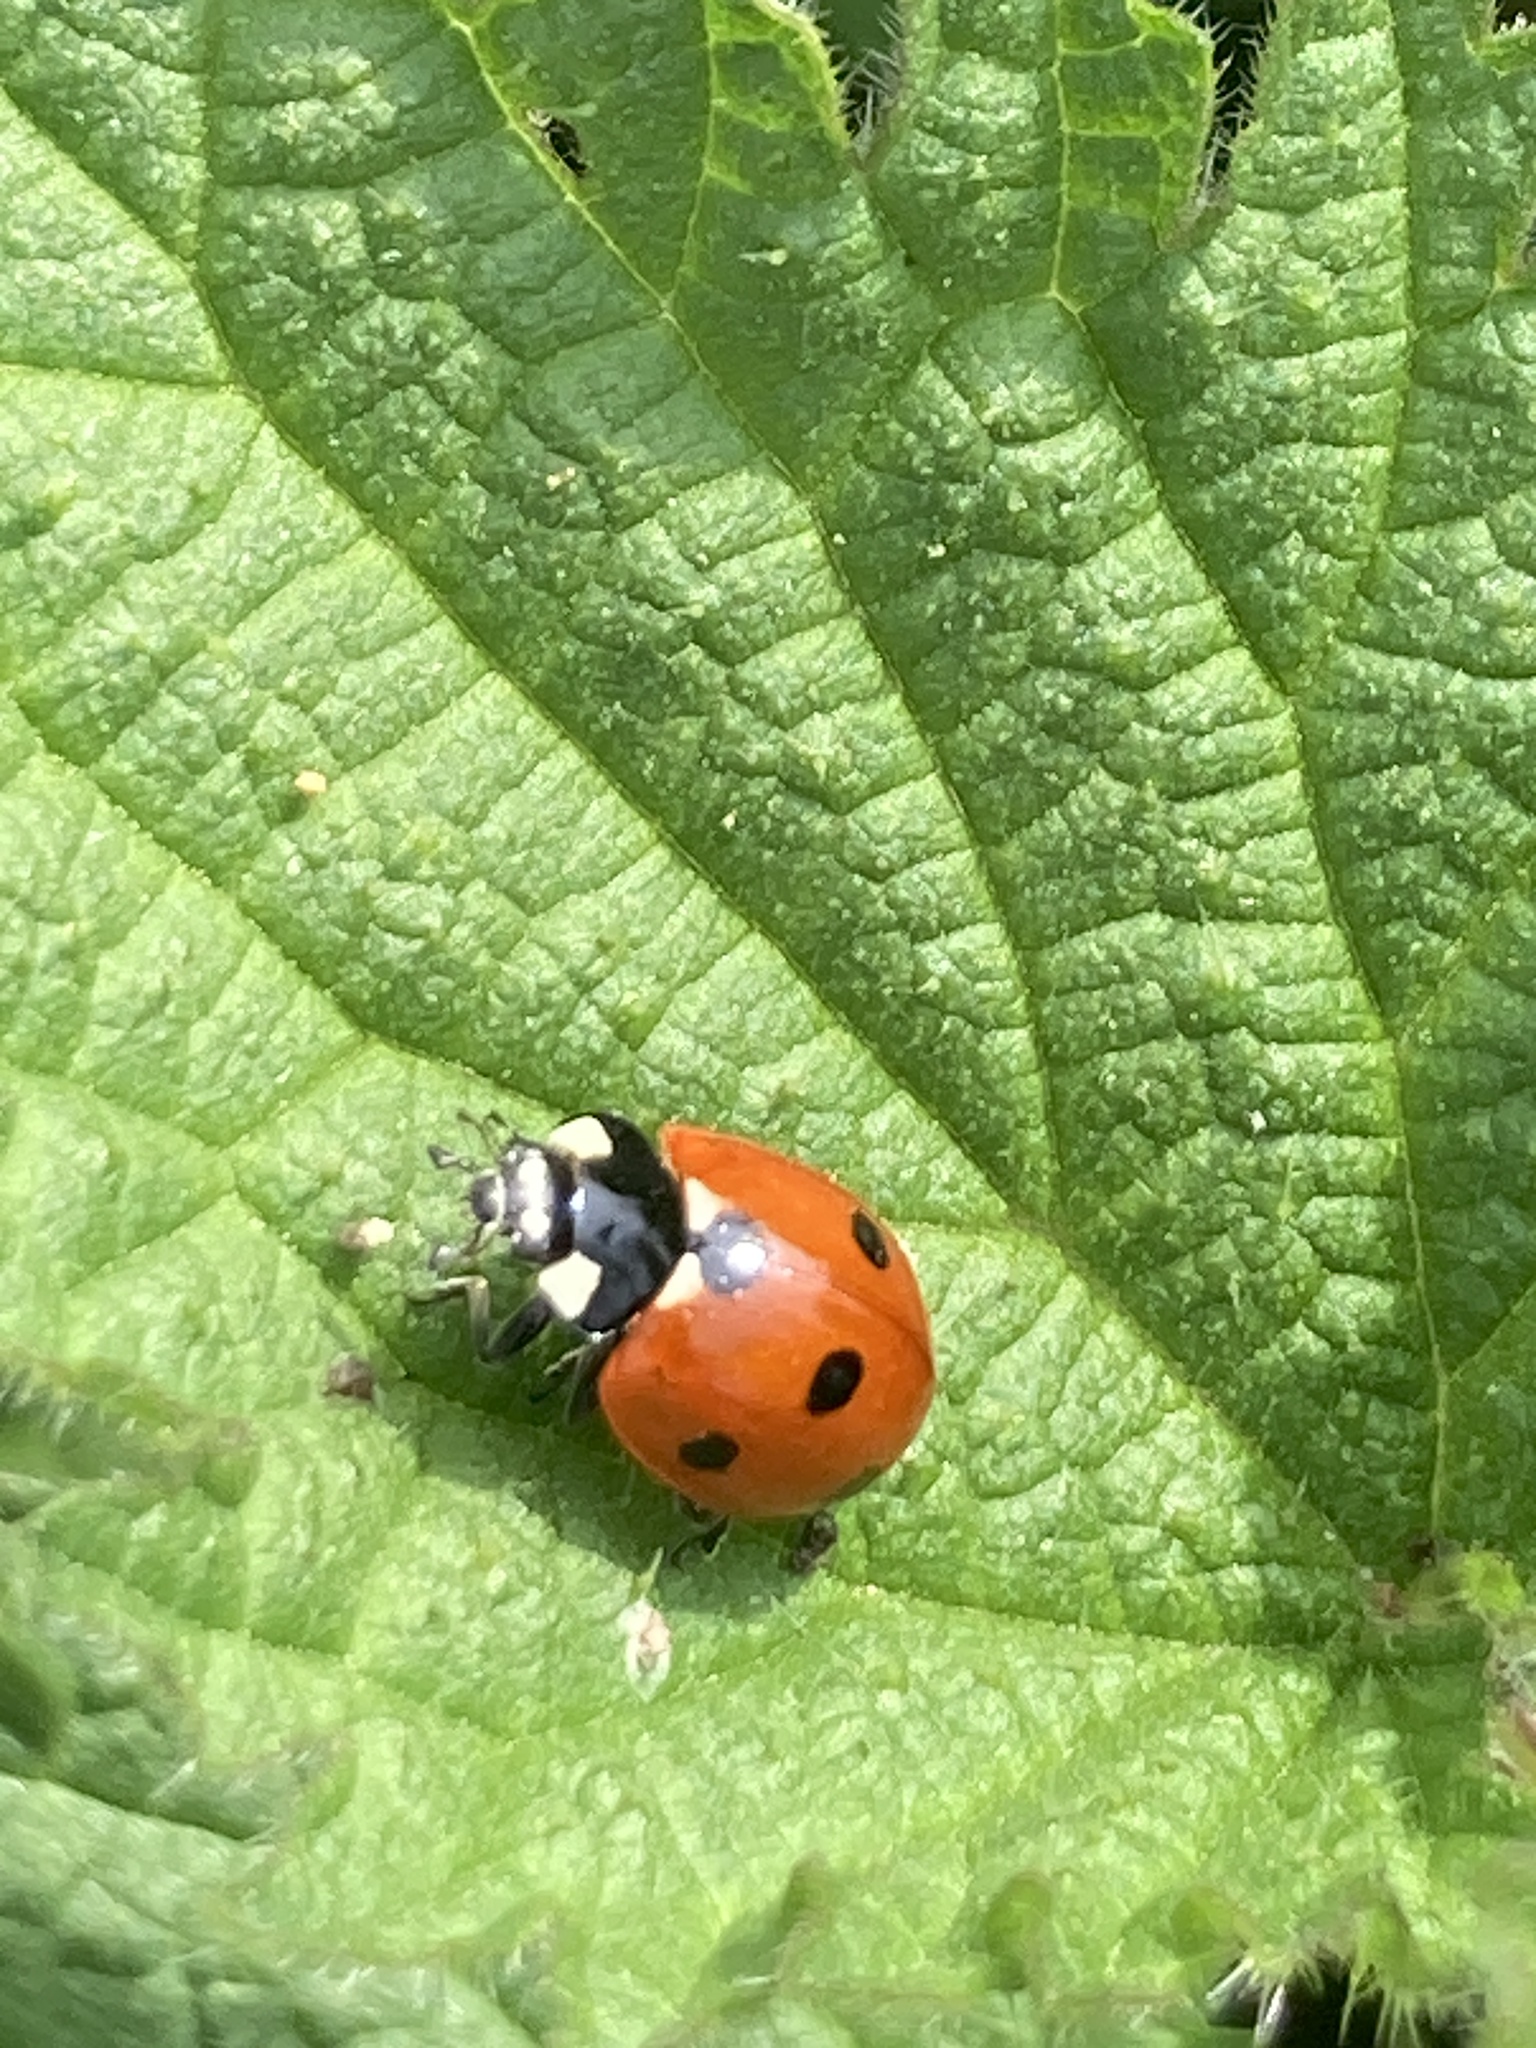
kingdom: Animalia
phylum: Arthropoda
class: Insecta
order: Coleoptera
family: Coccinellidae
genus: Coccinella
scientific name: Coccinella septempunctata
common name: Sevenspotted lady beetle
